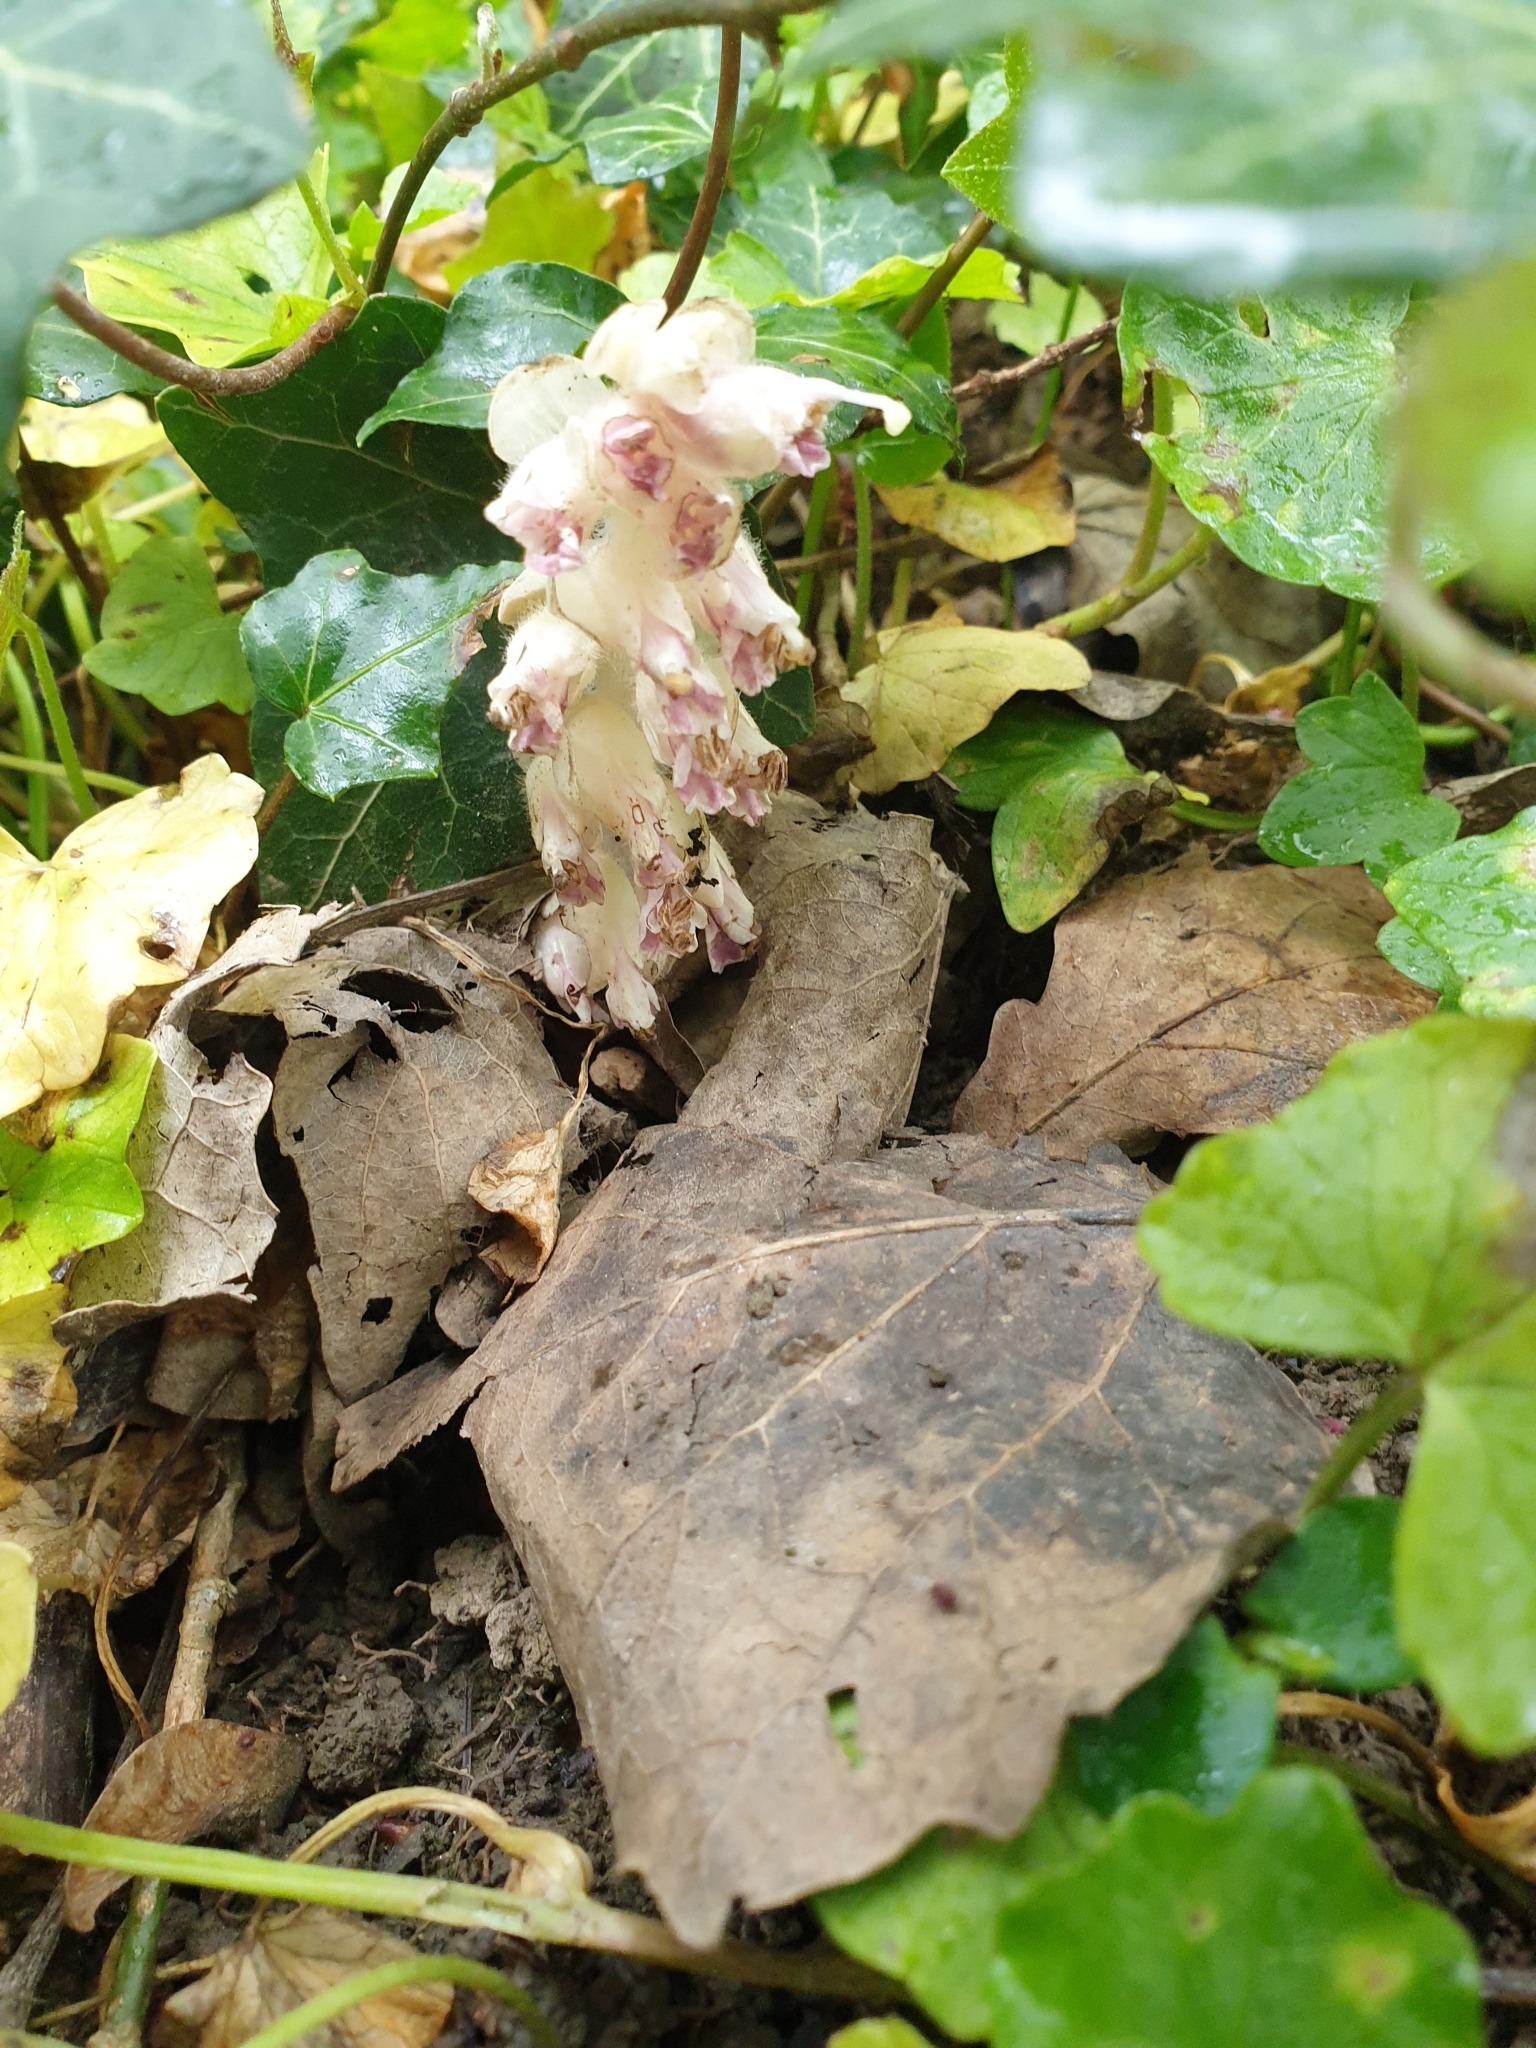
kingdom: Plantae
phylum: Tracheophyta
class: Magnoliopsida
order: Lamiales
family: Orobanchaceae
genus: Lathraea
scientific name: Lathraea squamaria
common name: Toothwort
